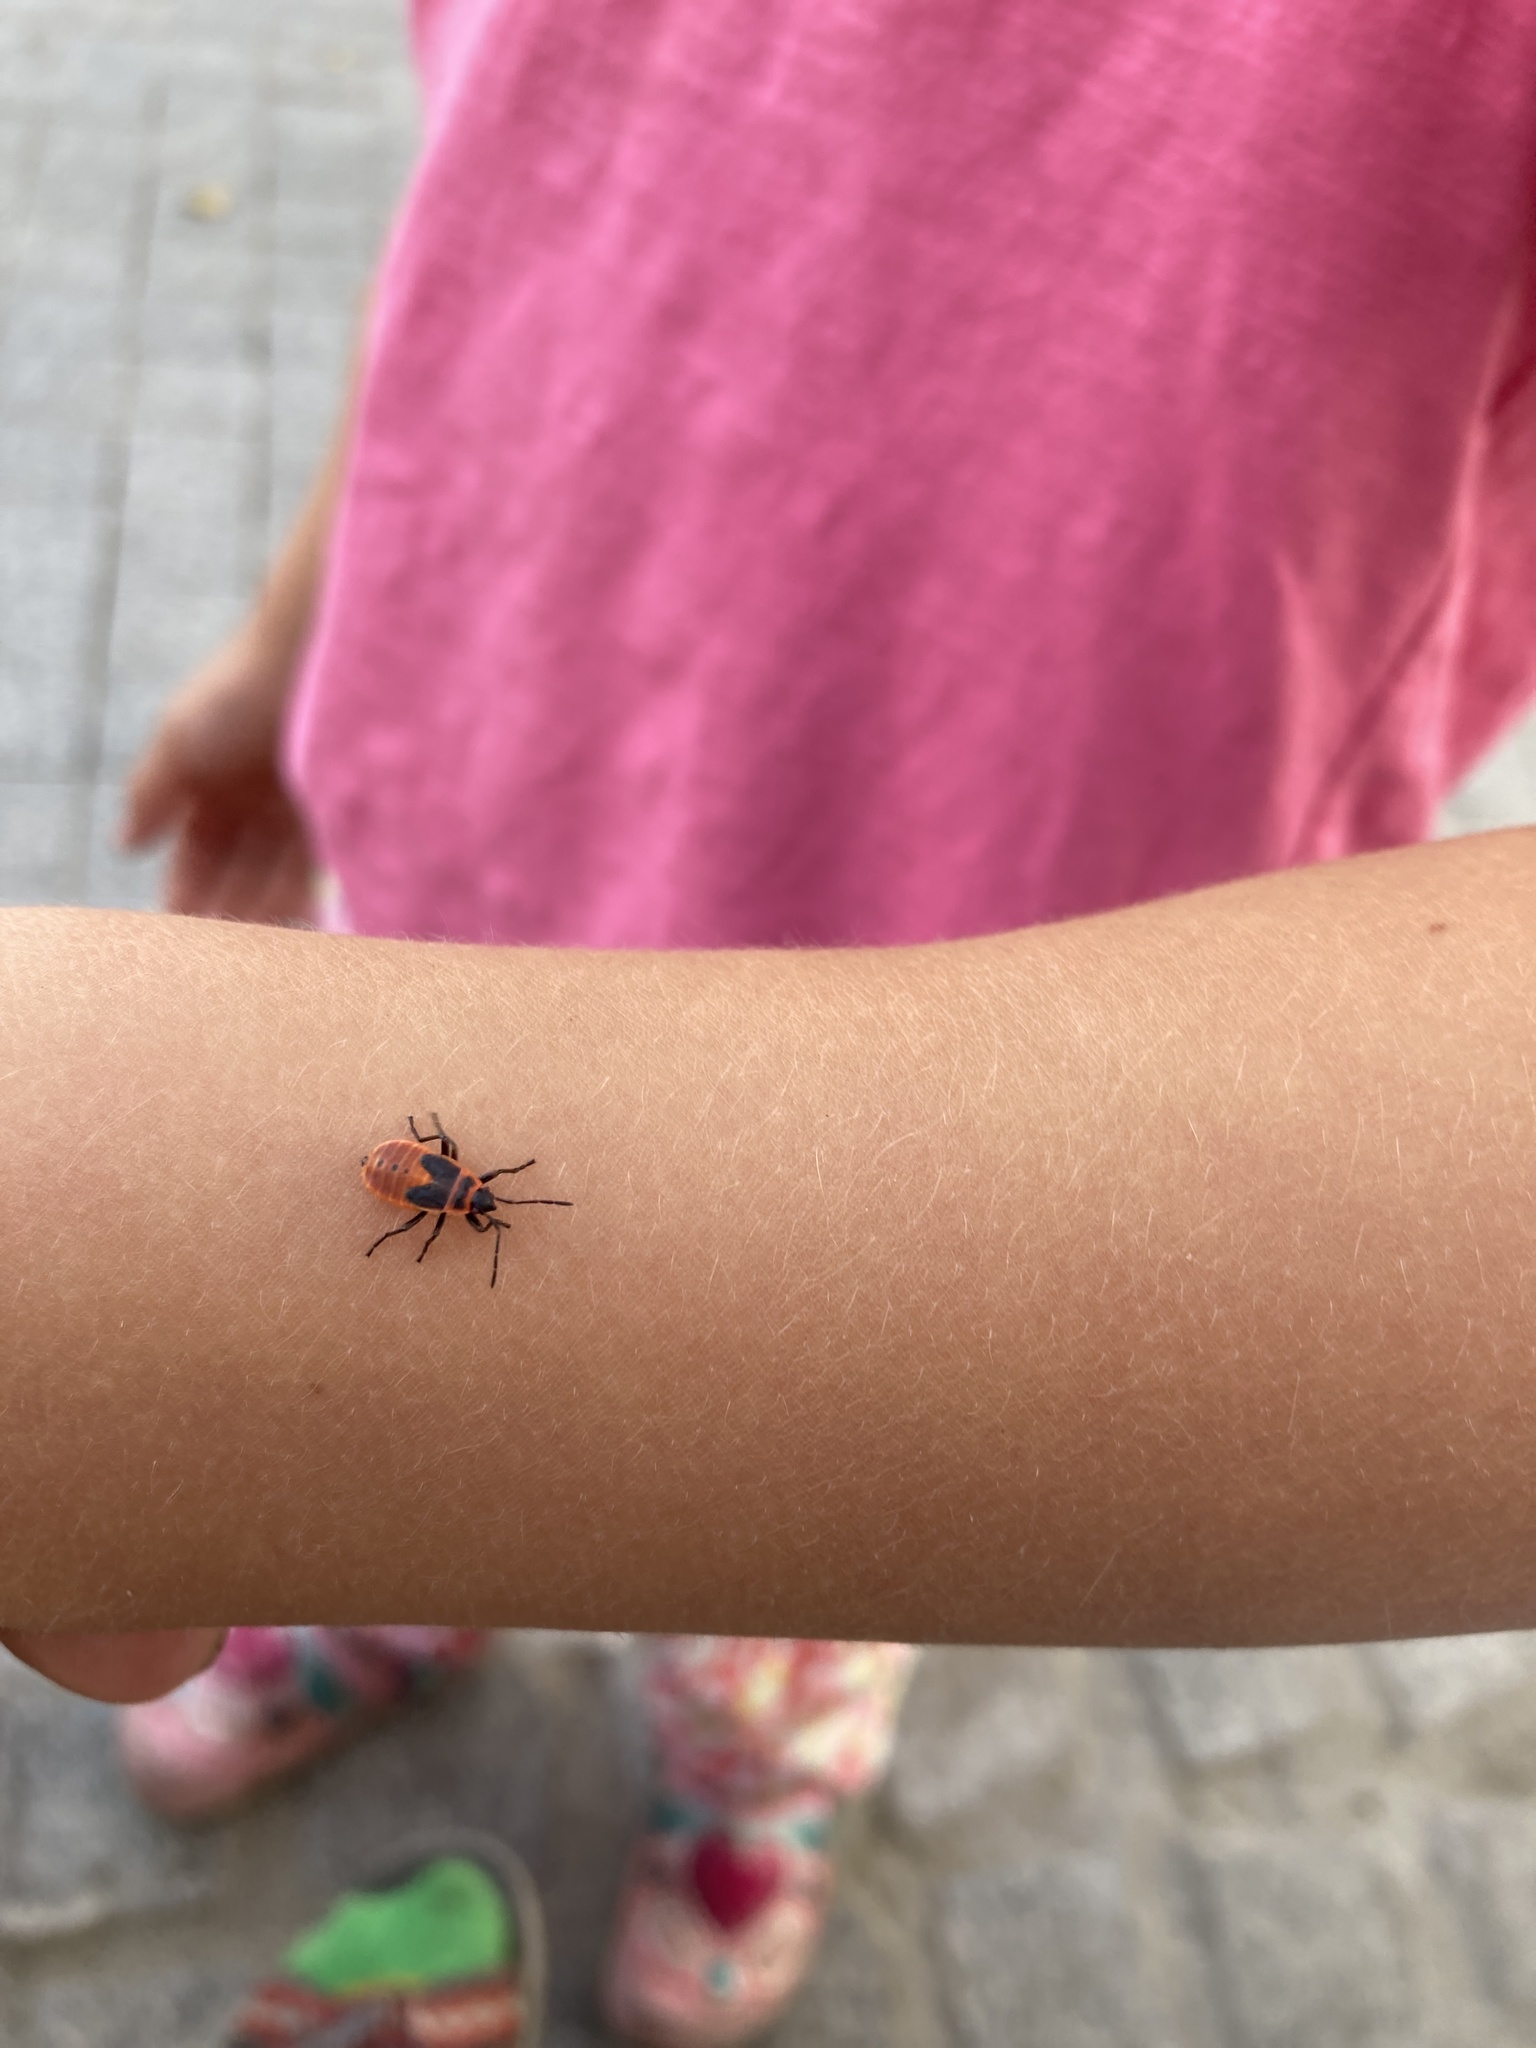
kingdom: Animalia
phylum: Arthropoda
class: Insecta
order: Hemiptera
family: Pyrrhocoridae
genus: Pyrrhocoris
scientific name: Pyrrhocoris apterus
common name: Firebug
